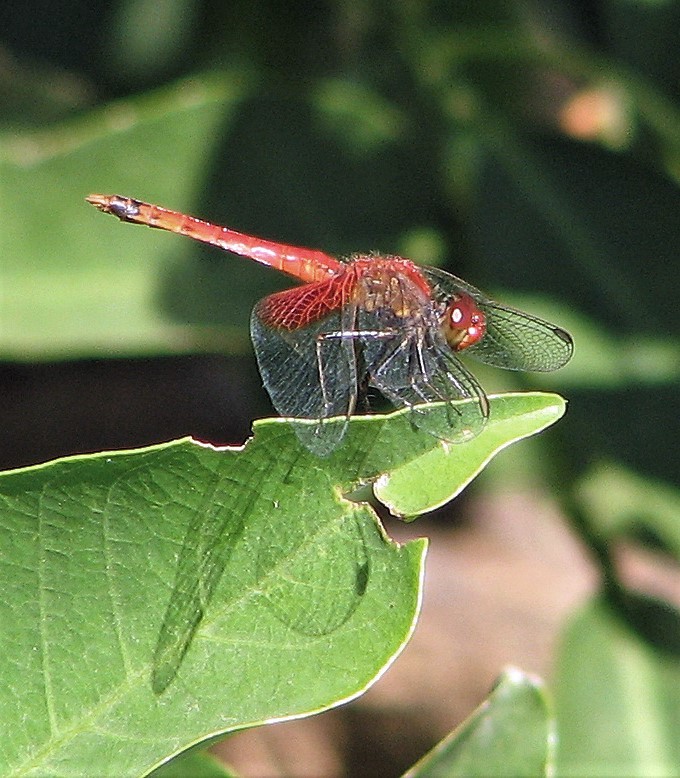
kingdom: Animalia
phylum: Arthropoda
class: Insecta
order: Odonata
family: Libellulidae
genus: Erythrodiplax
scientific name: Erythrodiplax corallina
